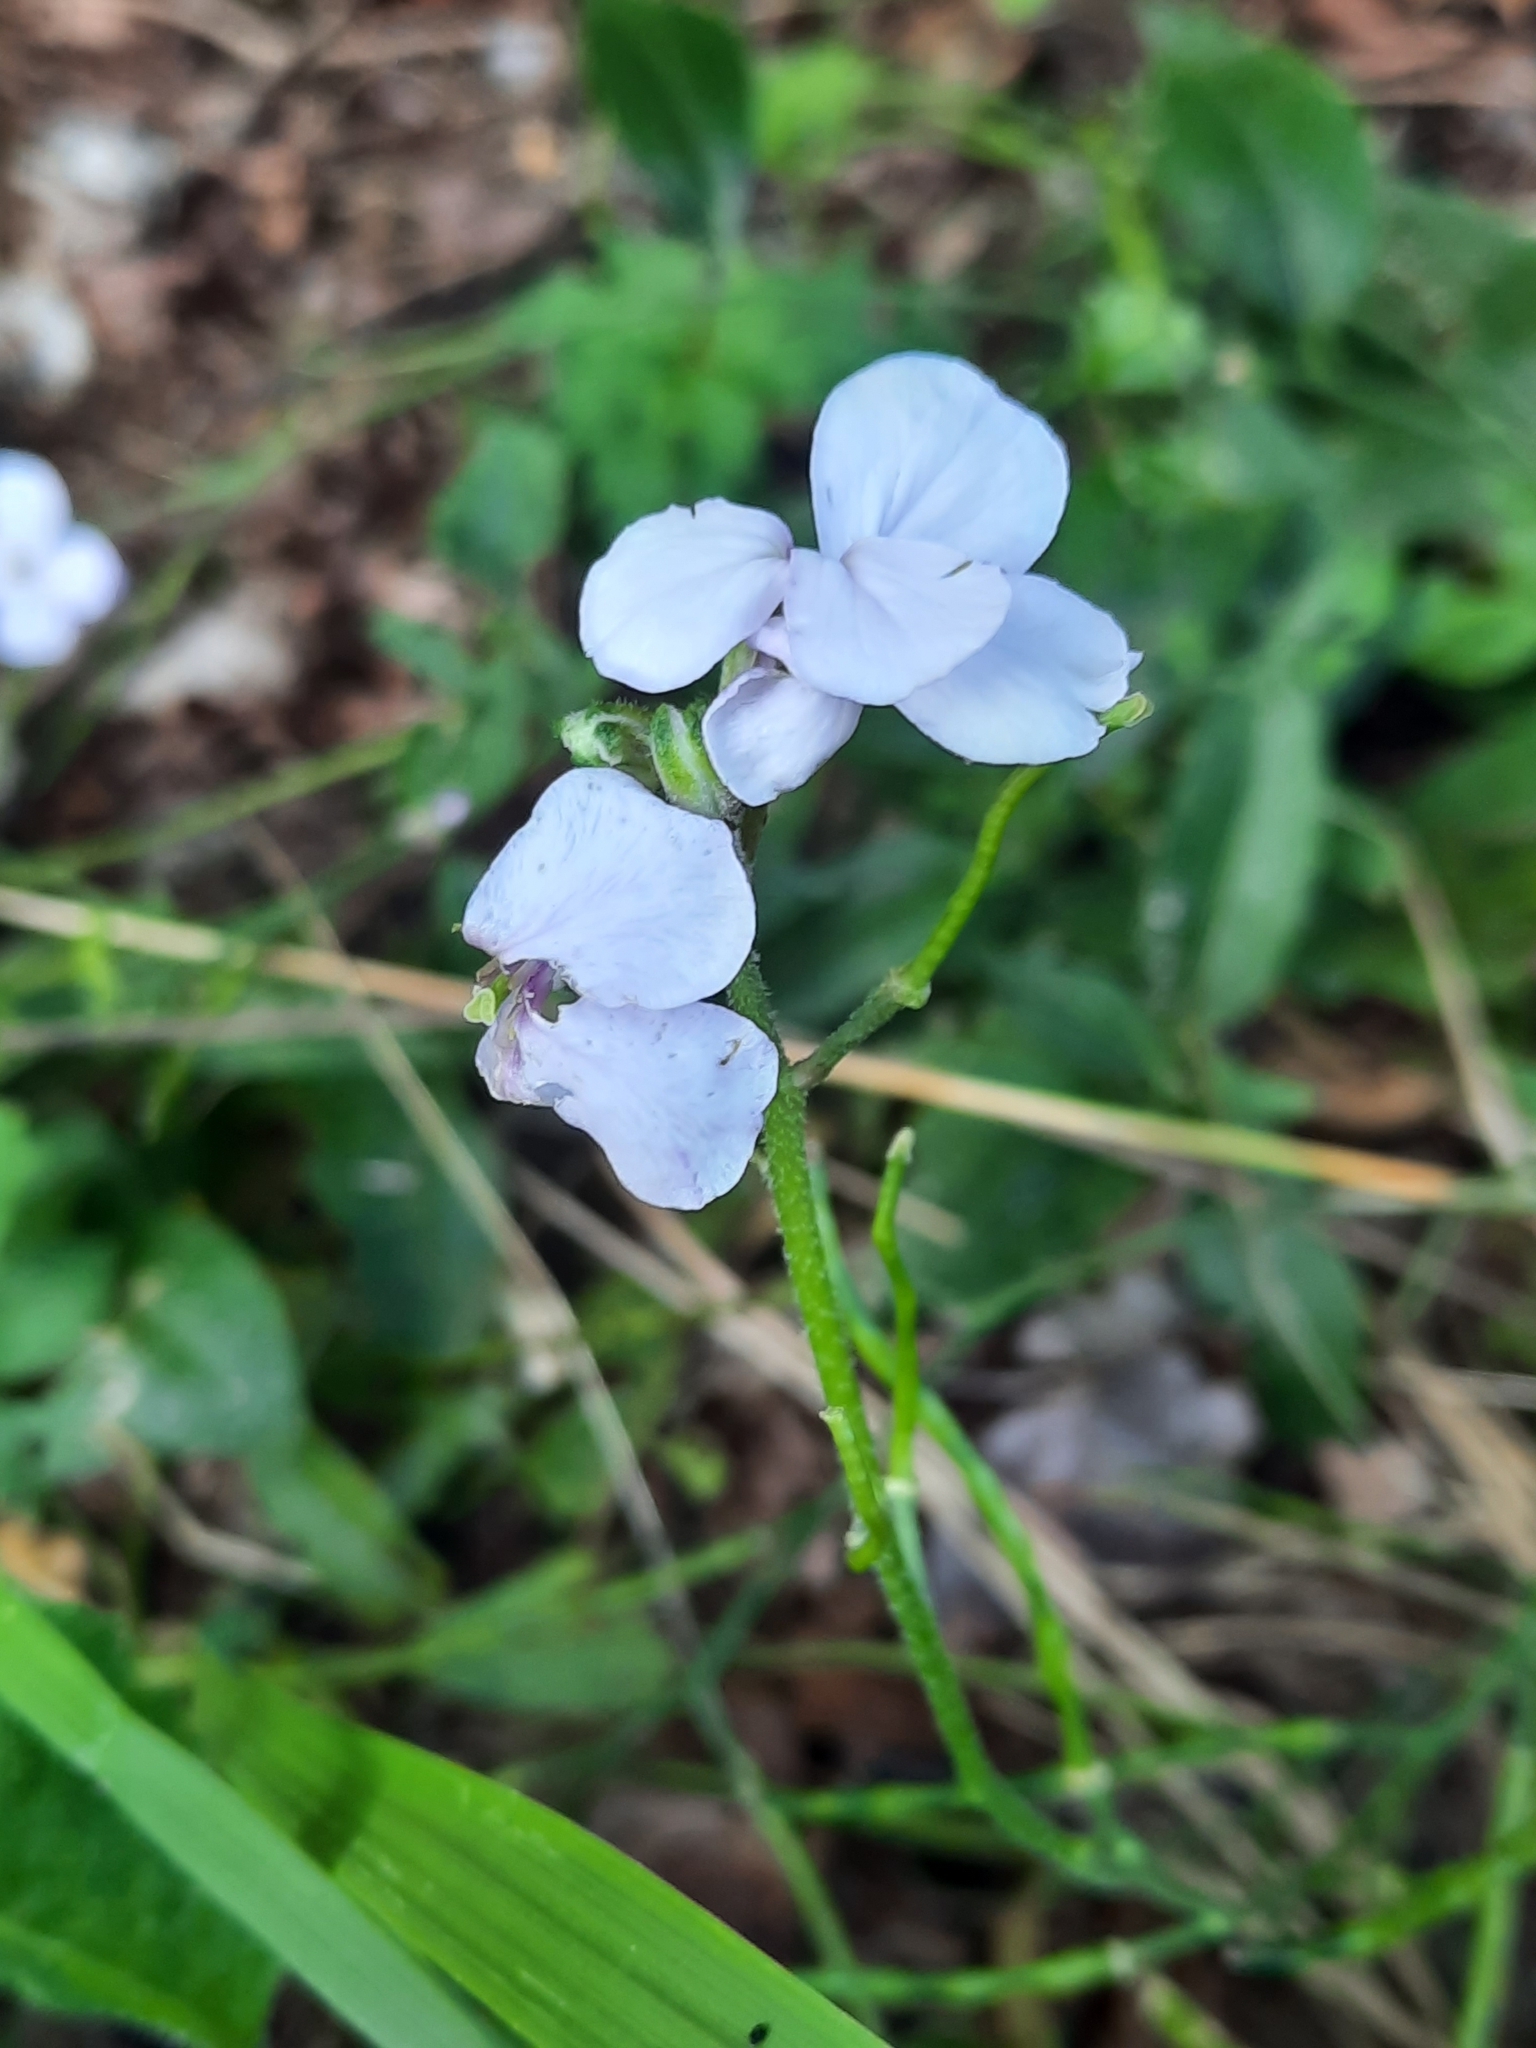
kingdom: Plantae
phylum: Tracheophyta
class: Magnoliopsida
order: Brassicales
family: Brassicaceae
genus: Hesperis
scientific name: Hesperis matronalis
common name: Dame's-violet
